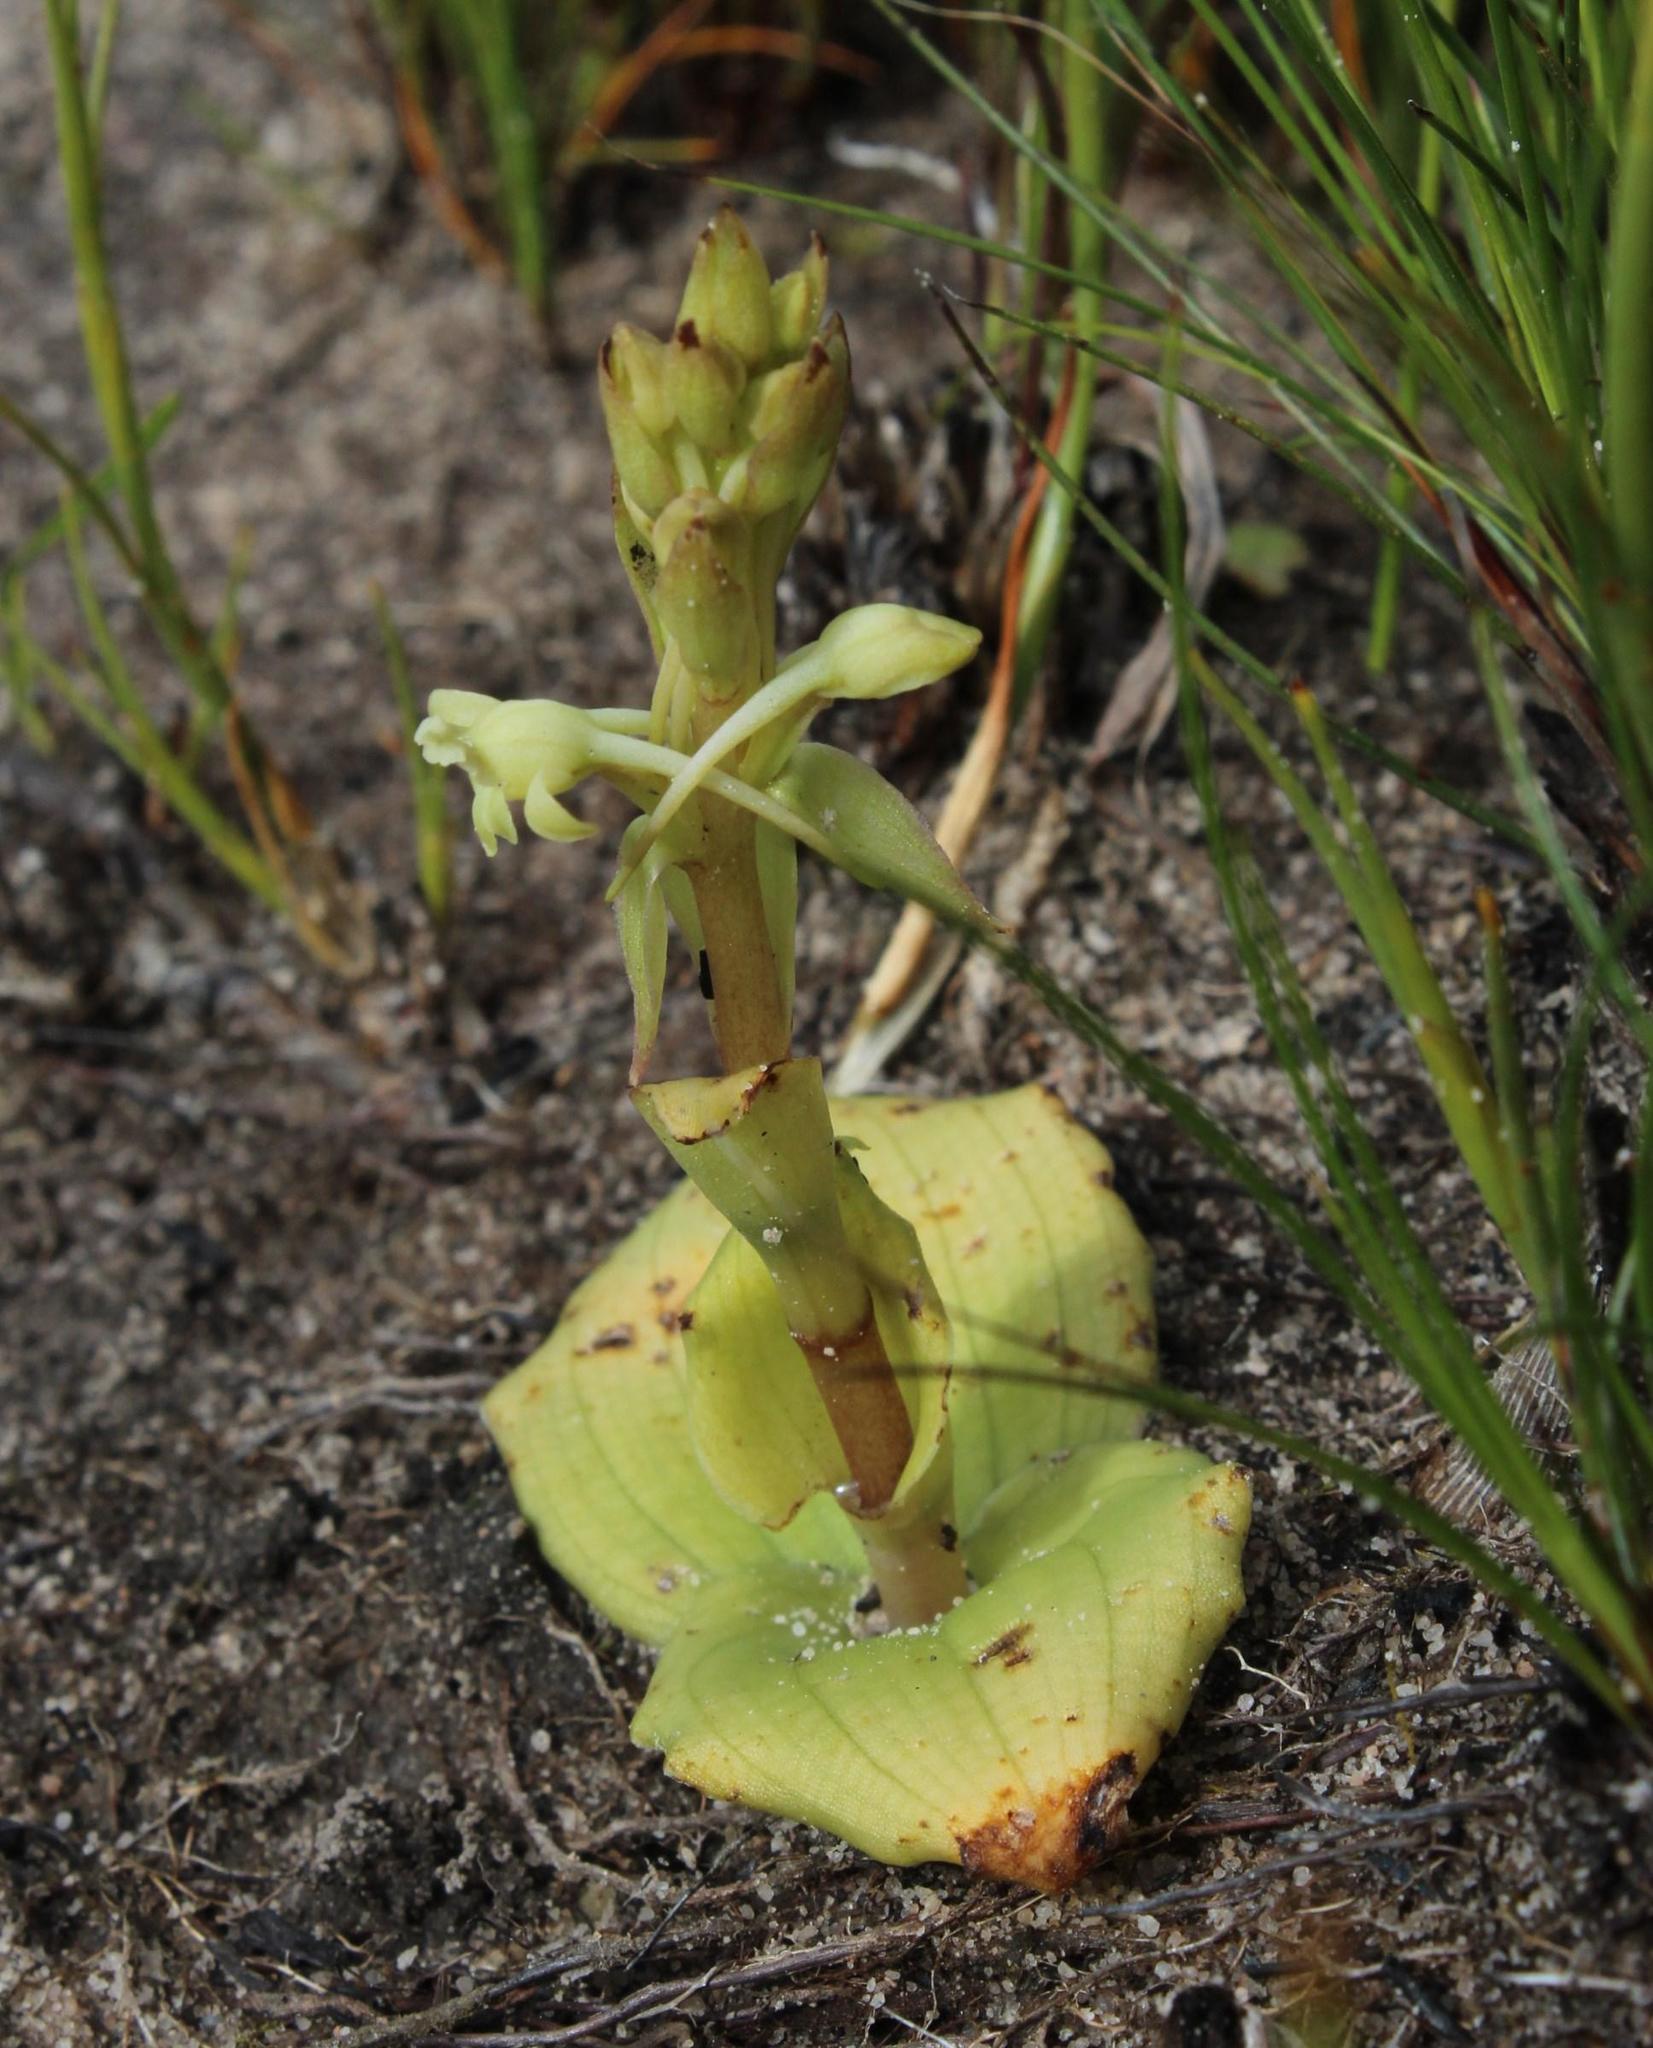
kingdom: Plantae
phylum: Tracheophyta
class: Liliopsida
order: Asparagales
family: Orchidaceae
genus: Satyrium
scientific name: Satyrium humile
